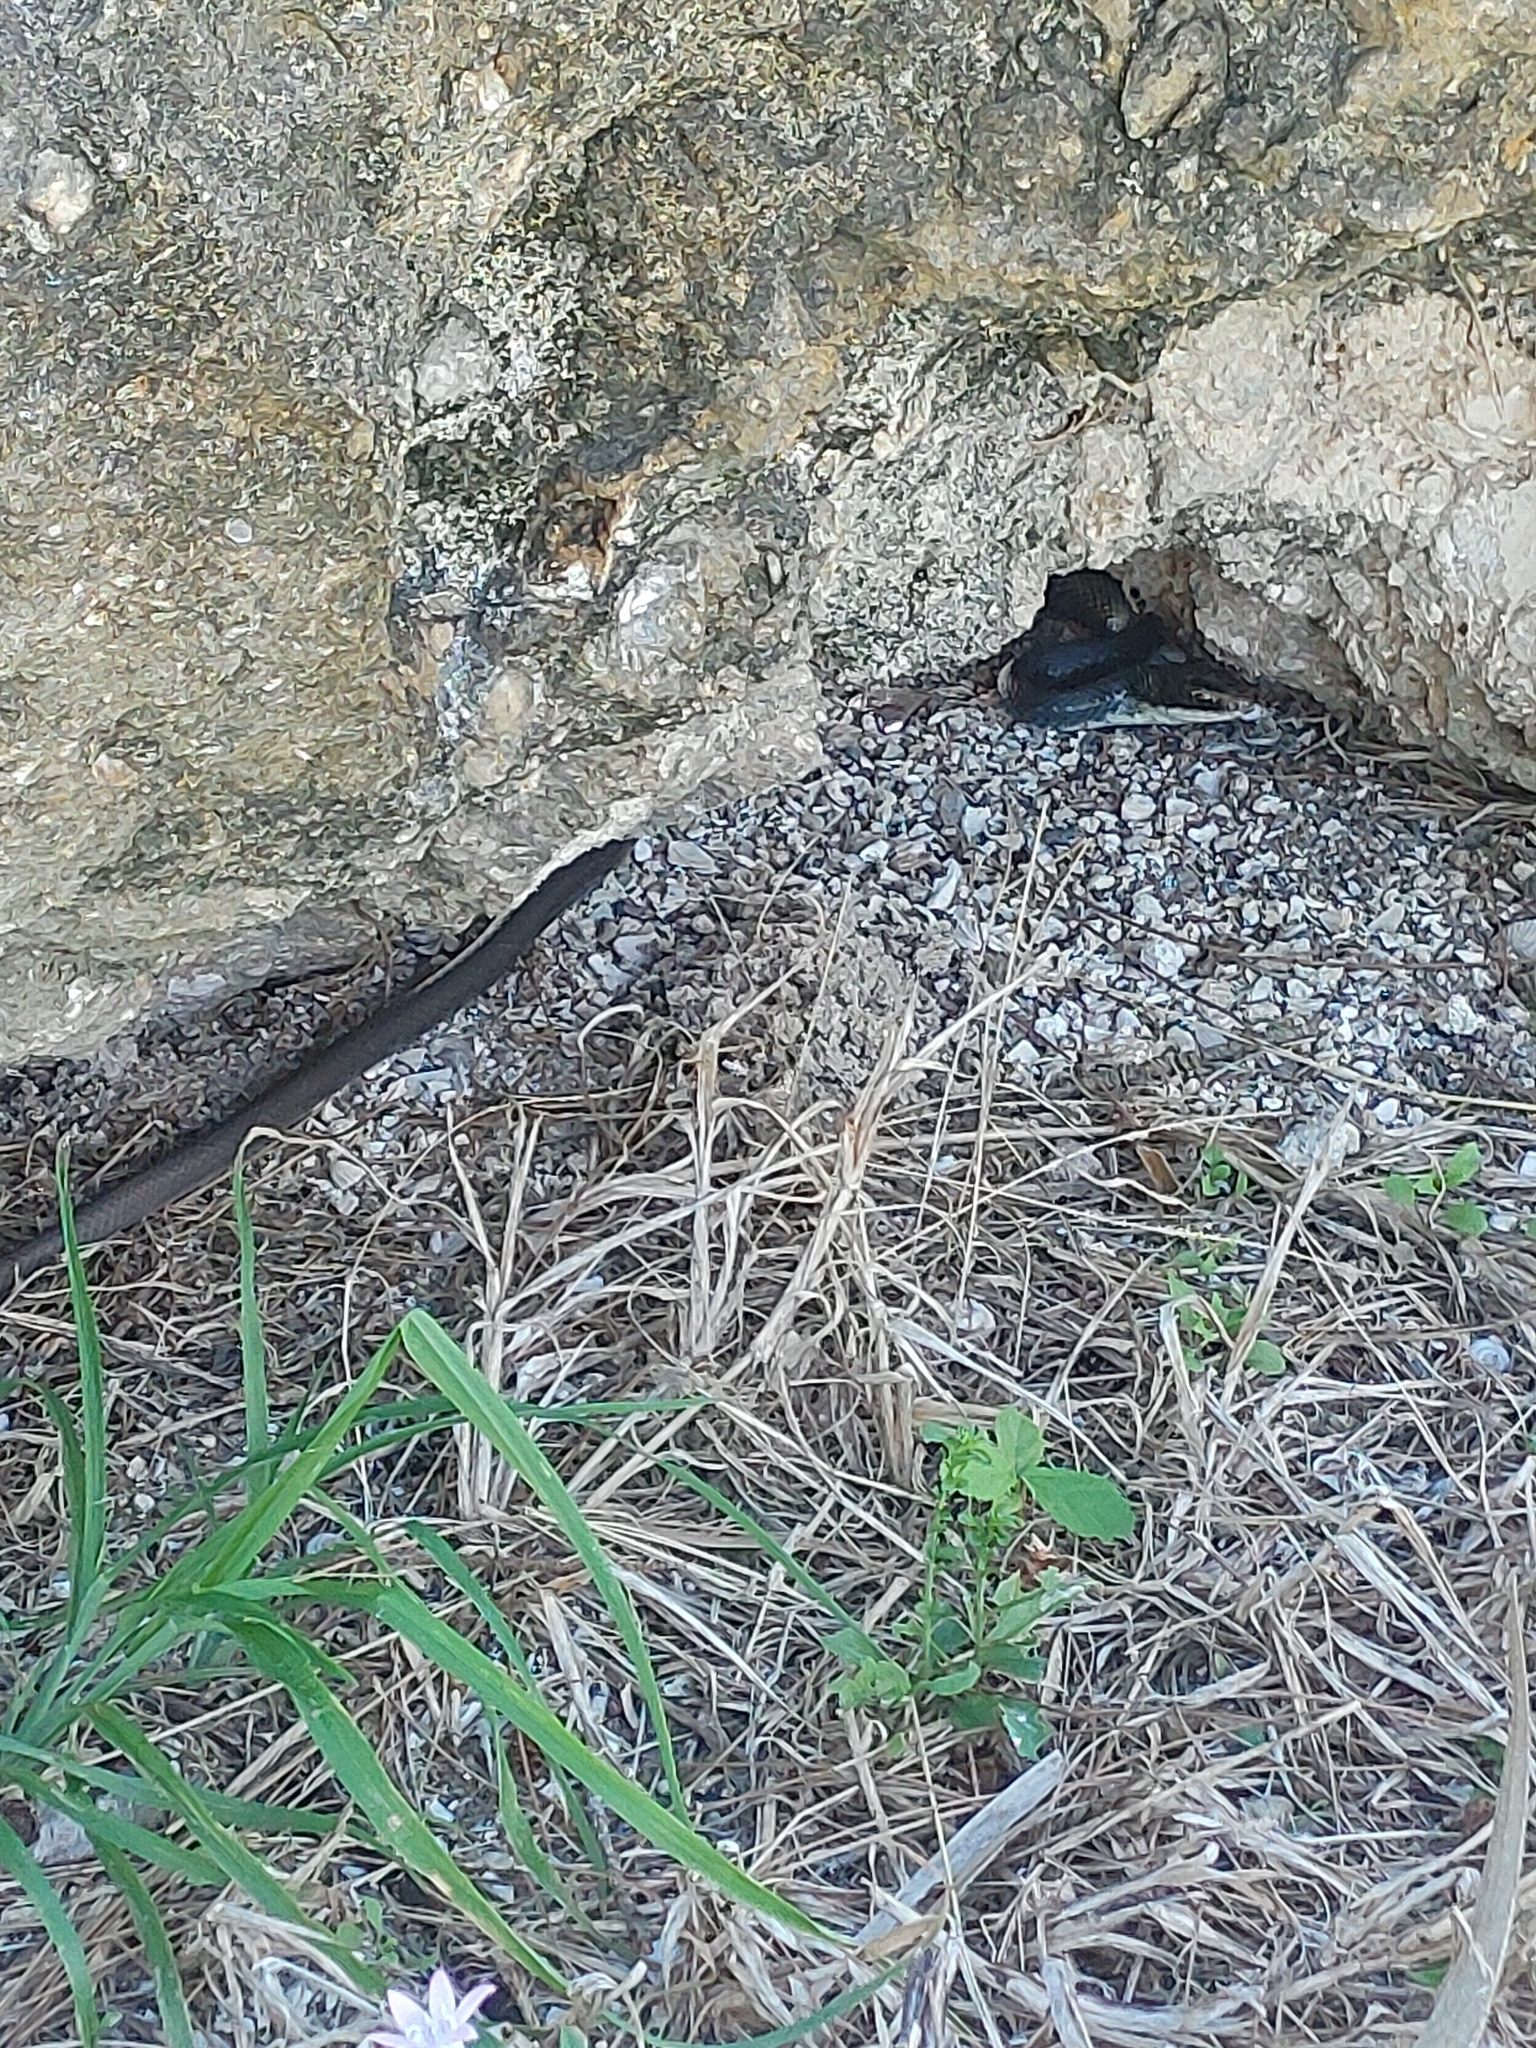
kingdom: Animalia
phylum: Chordata
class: Squamata
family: Colubridae
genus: Coluber
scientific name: Coluber constrictor
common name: Eastern racer
